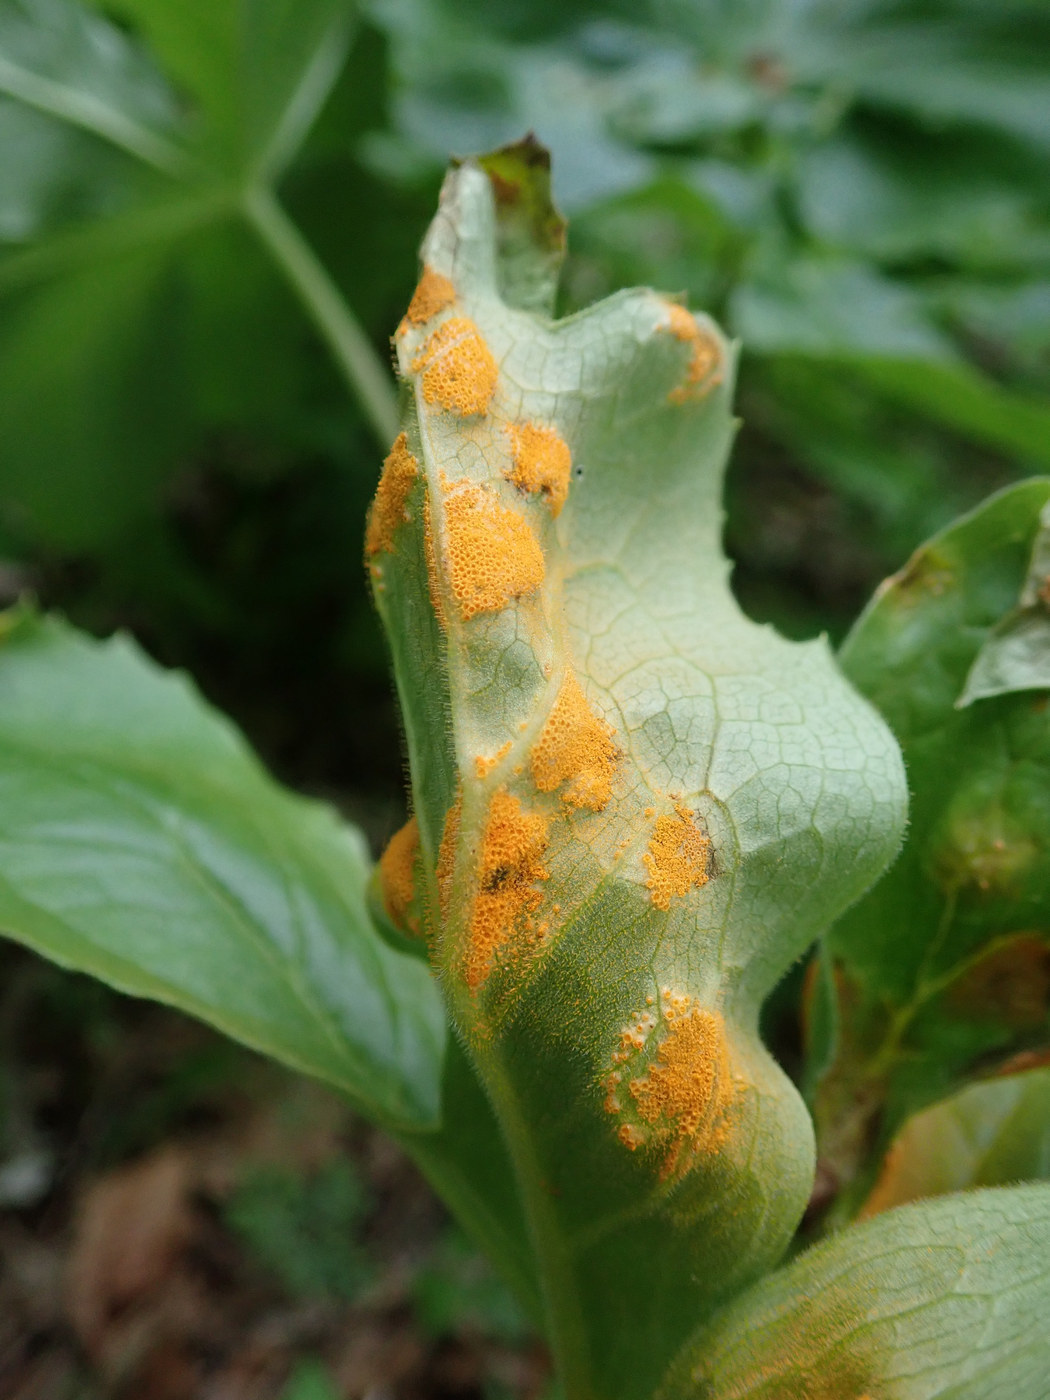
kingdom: Fungi
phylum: Basidiomycota
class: Pucciniomycetes
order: Pucciniales
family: Pucciniaceae
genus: Puccinia
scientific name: Puccinia podophylli
